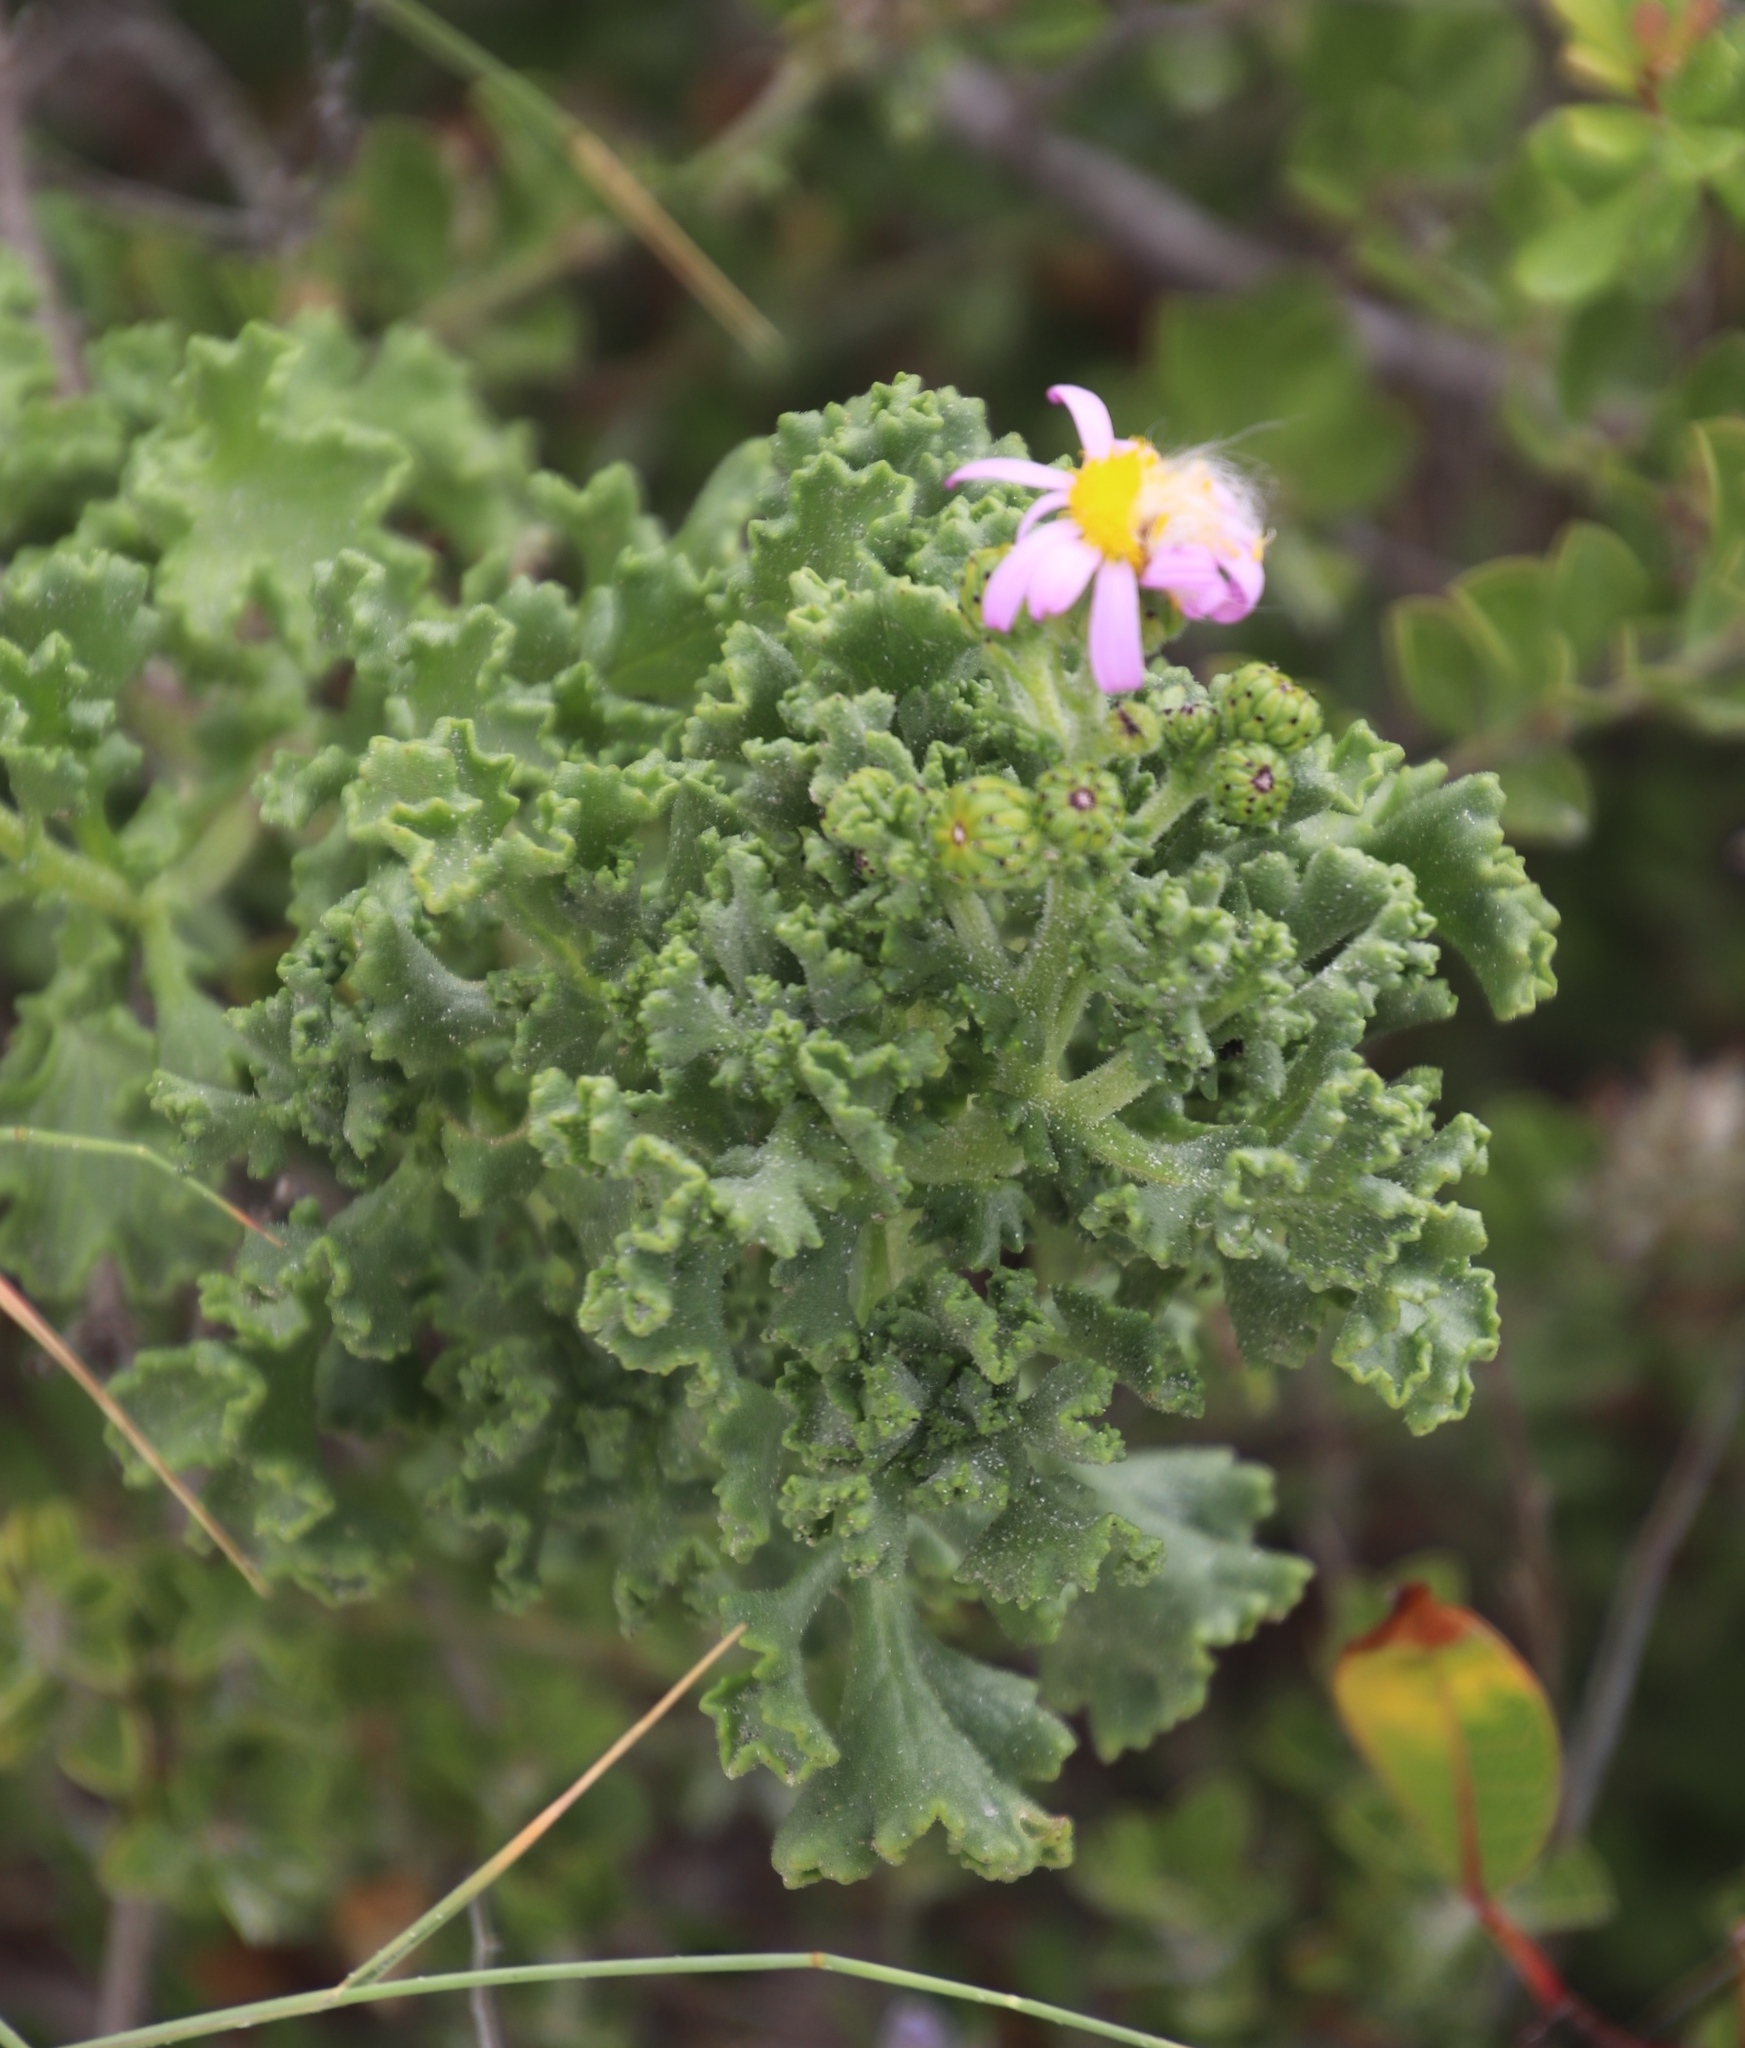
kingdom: Plantae
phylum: Tracheophyta
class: Magnoliopsida
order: Asterales
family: Asteraceae
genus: Senecio
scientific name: Senecio elegans
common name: Purple groundsel
